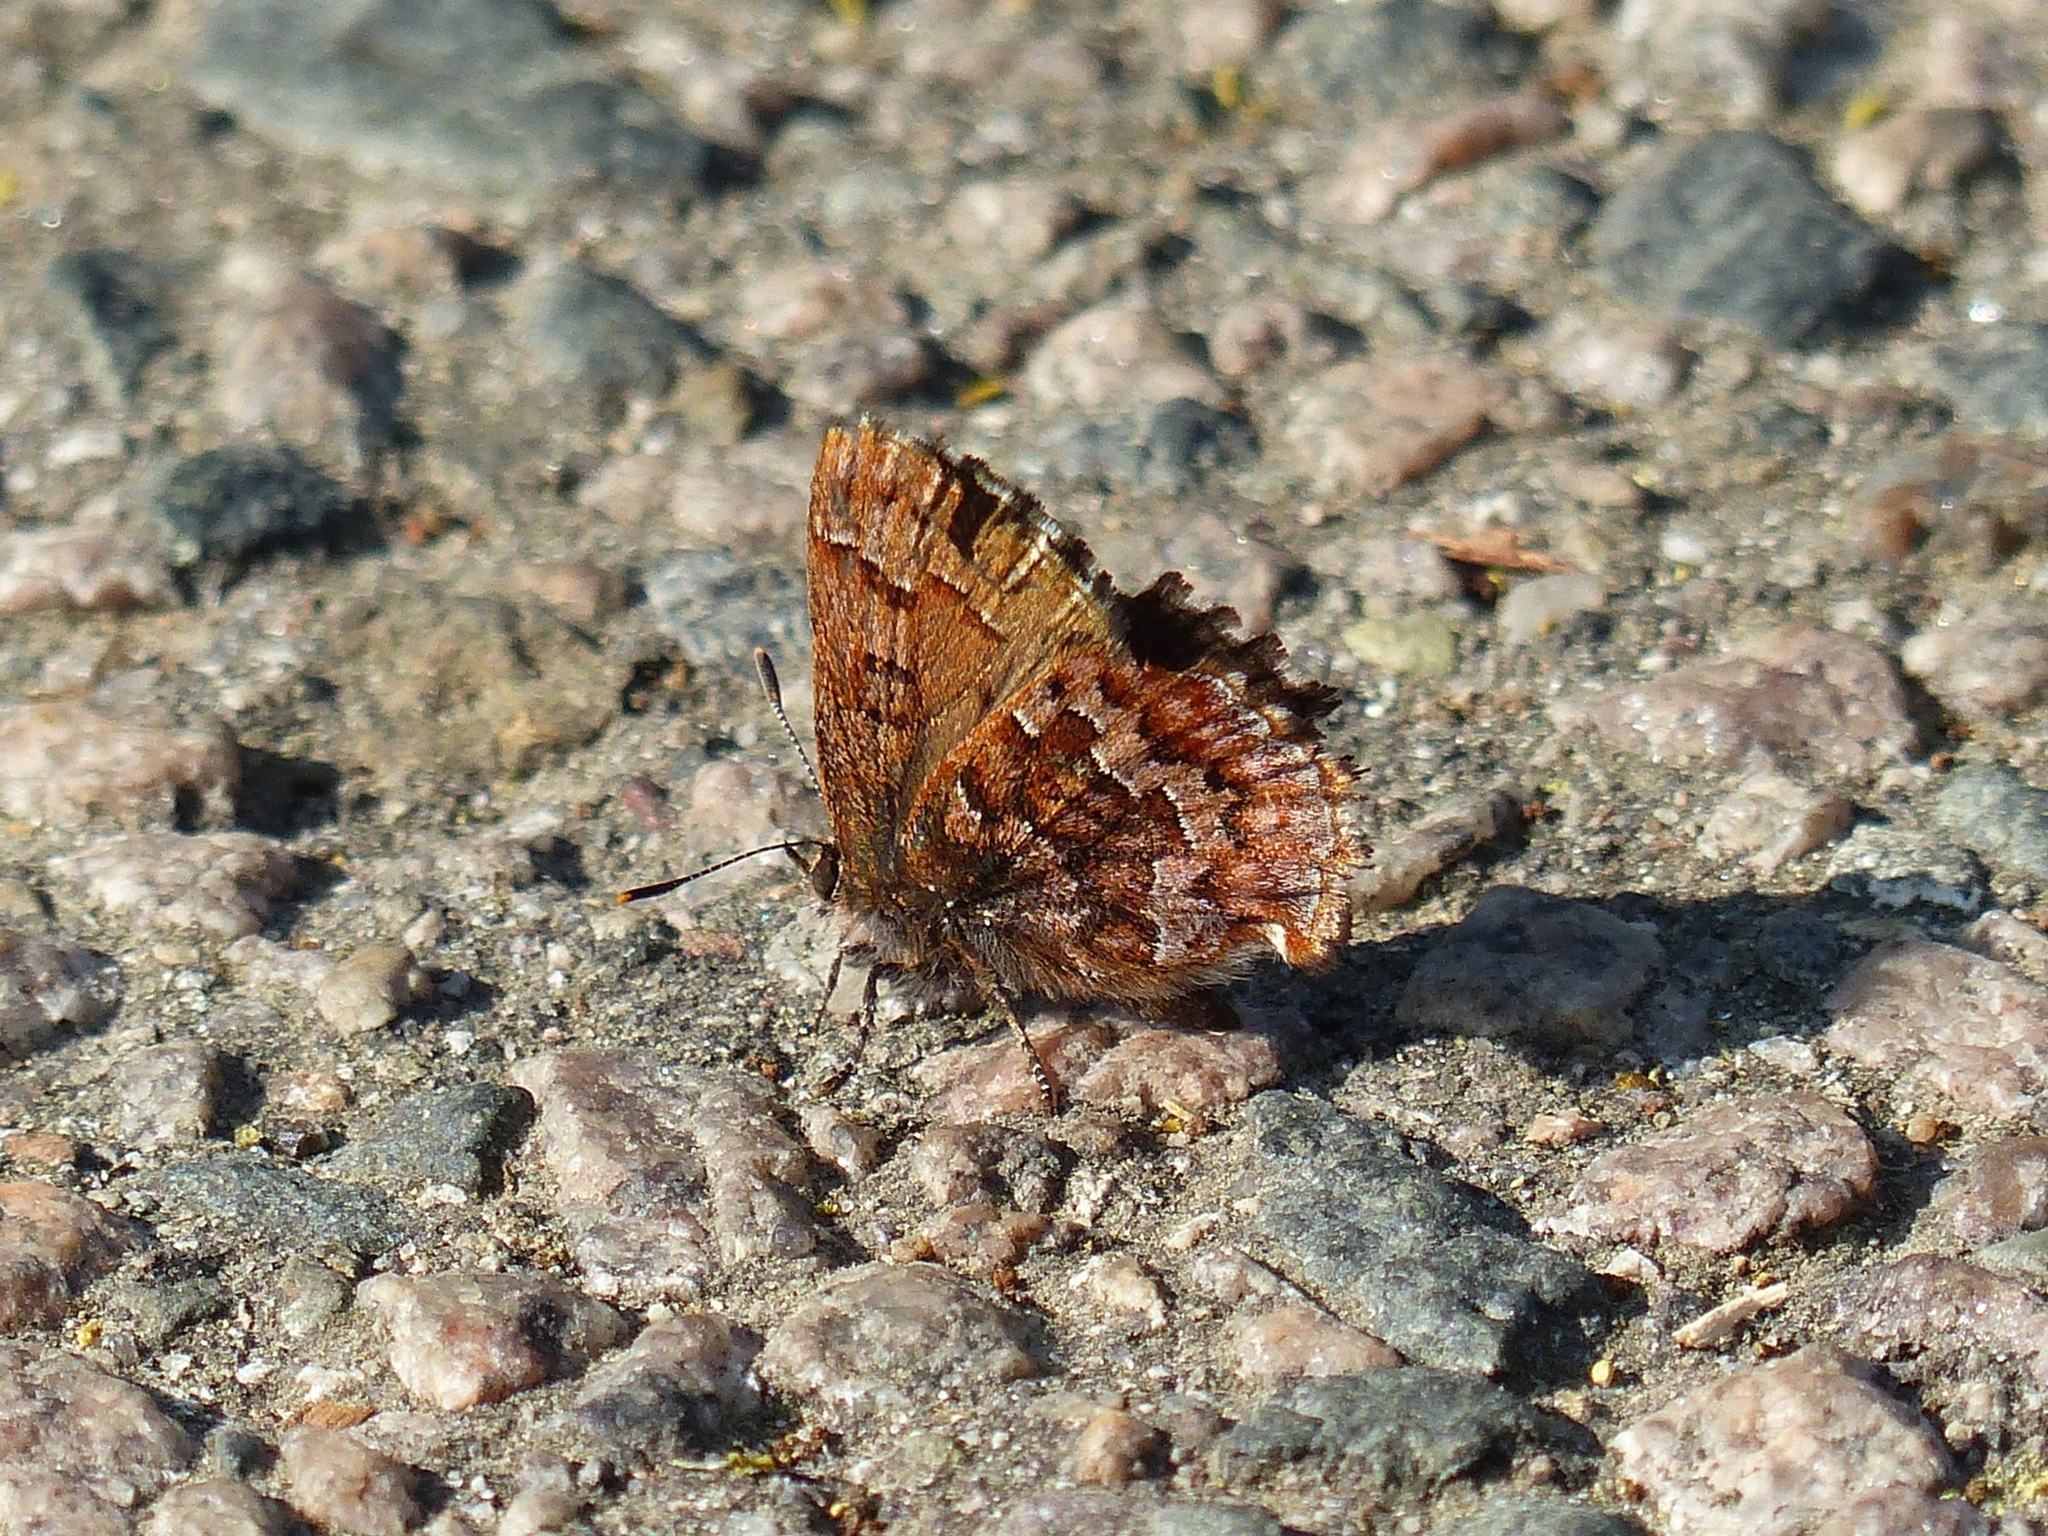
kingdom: Animalia
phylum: Arthropoda
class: Insecta
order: Lepidoptera
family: Lycaenidae
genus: Incisalia
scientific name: Incisalia niphon
